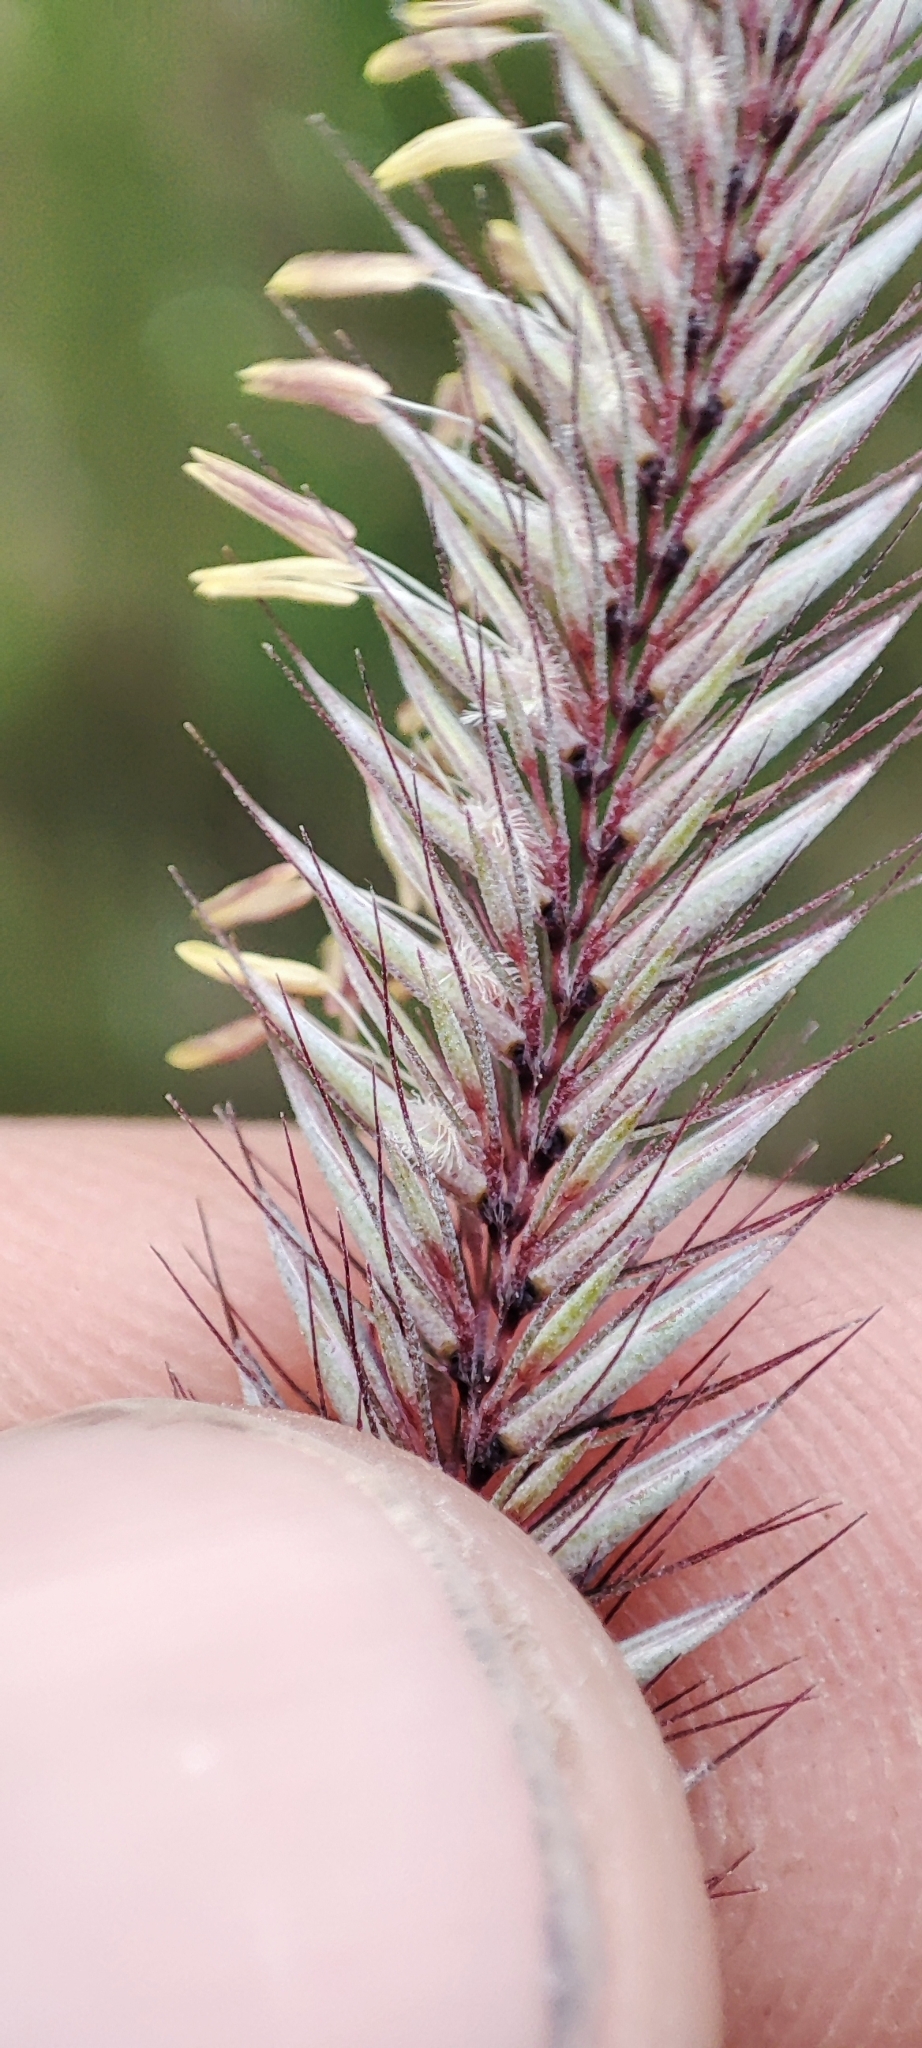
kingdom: Plantae
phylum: Tracheophyta
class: Liliopsida
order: Poales
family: Poaceae
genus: Hordeum
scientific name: Hordeum brevisubulatum
